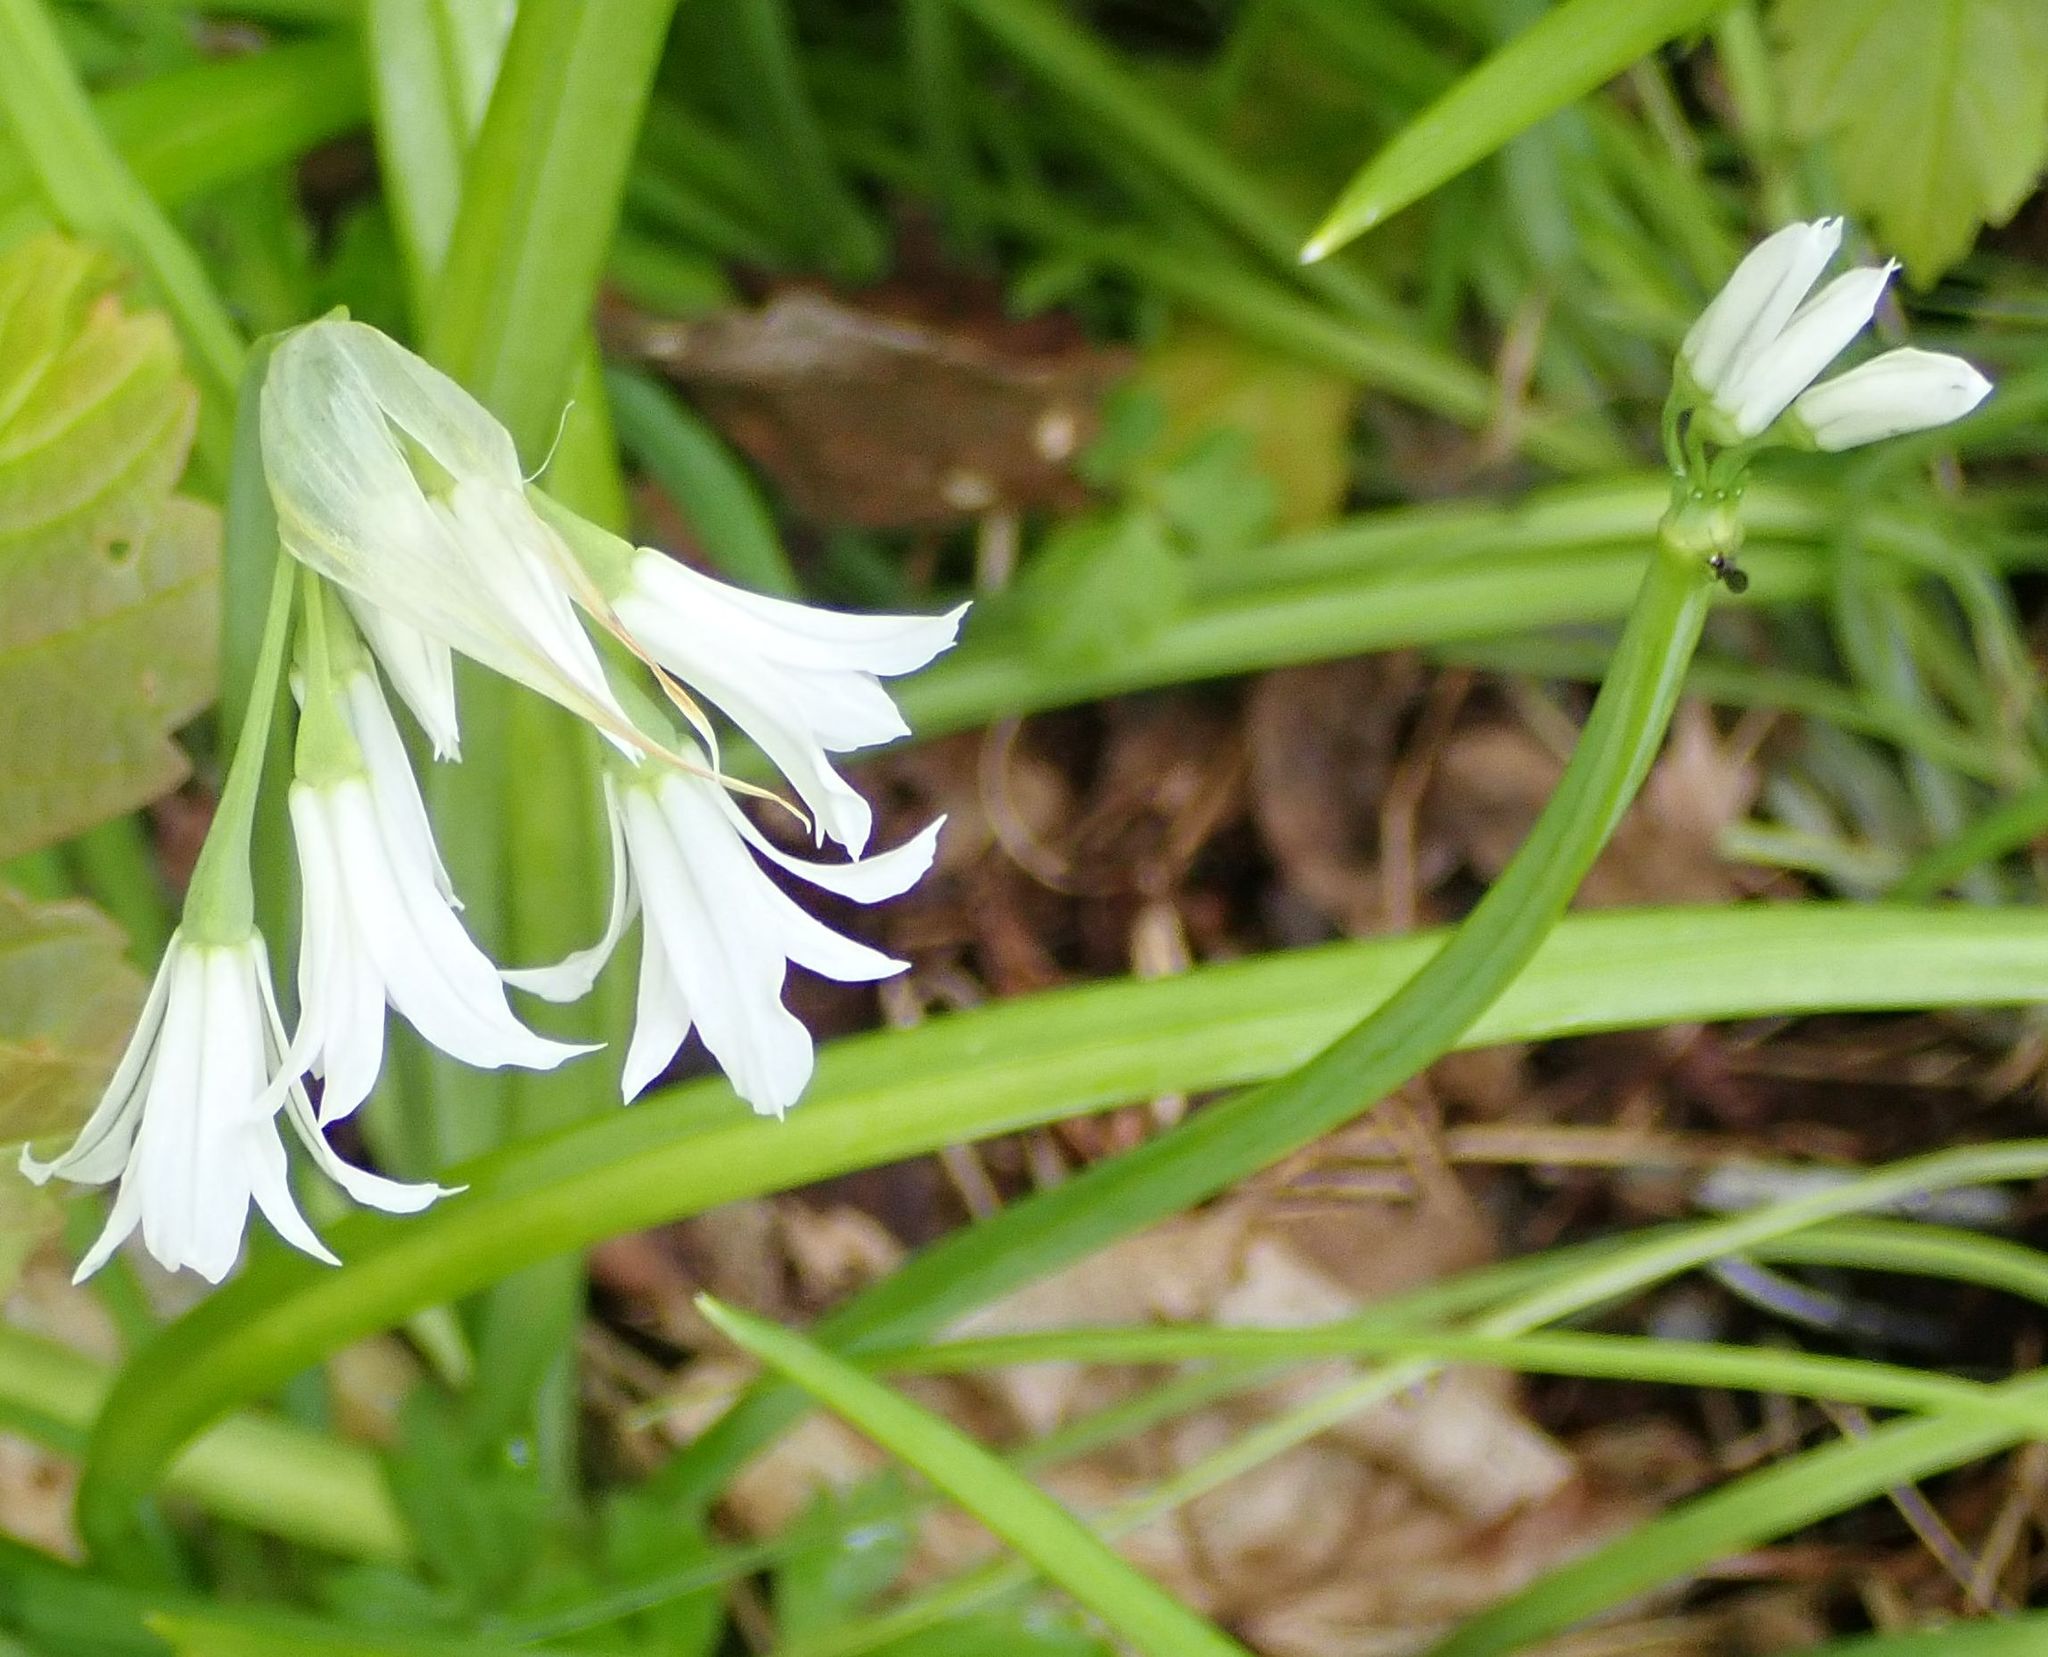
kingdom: Plantae
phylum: Tracheophyta
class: Liliopsida
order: Asparagales
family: Amaryllidaceae
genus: Allium
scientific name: Allium triquetrum
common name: Three-cornered garlic
